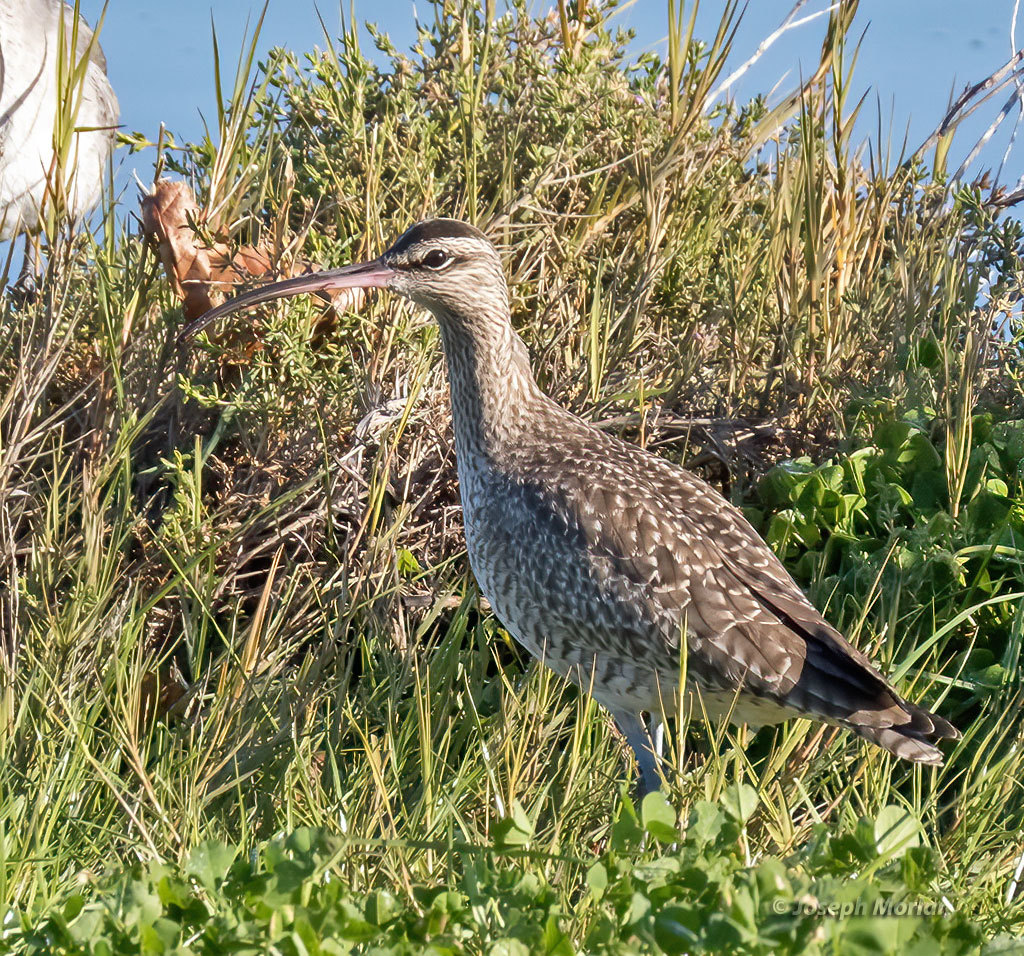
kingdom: Animalia
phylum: Chordata
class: Aves
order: Charadriiformes
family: Scolopacidae
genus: Numenius
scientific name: Numenius phaeopus
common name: Whimbrel
